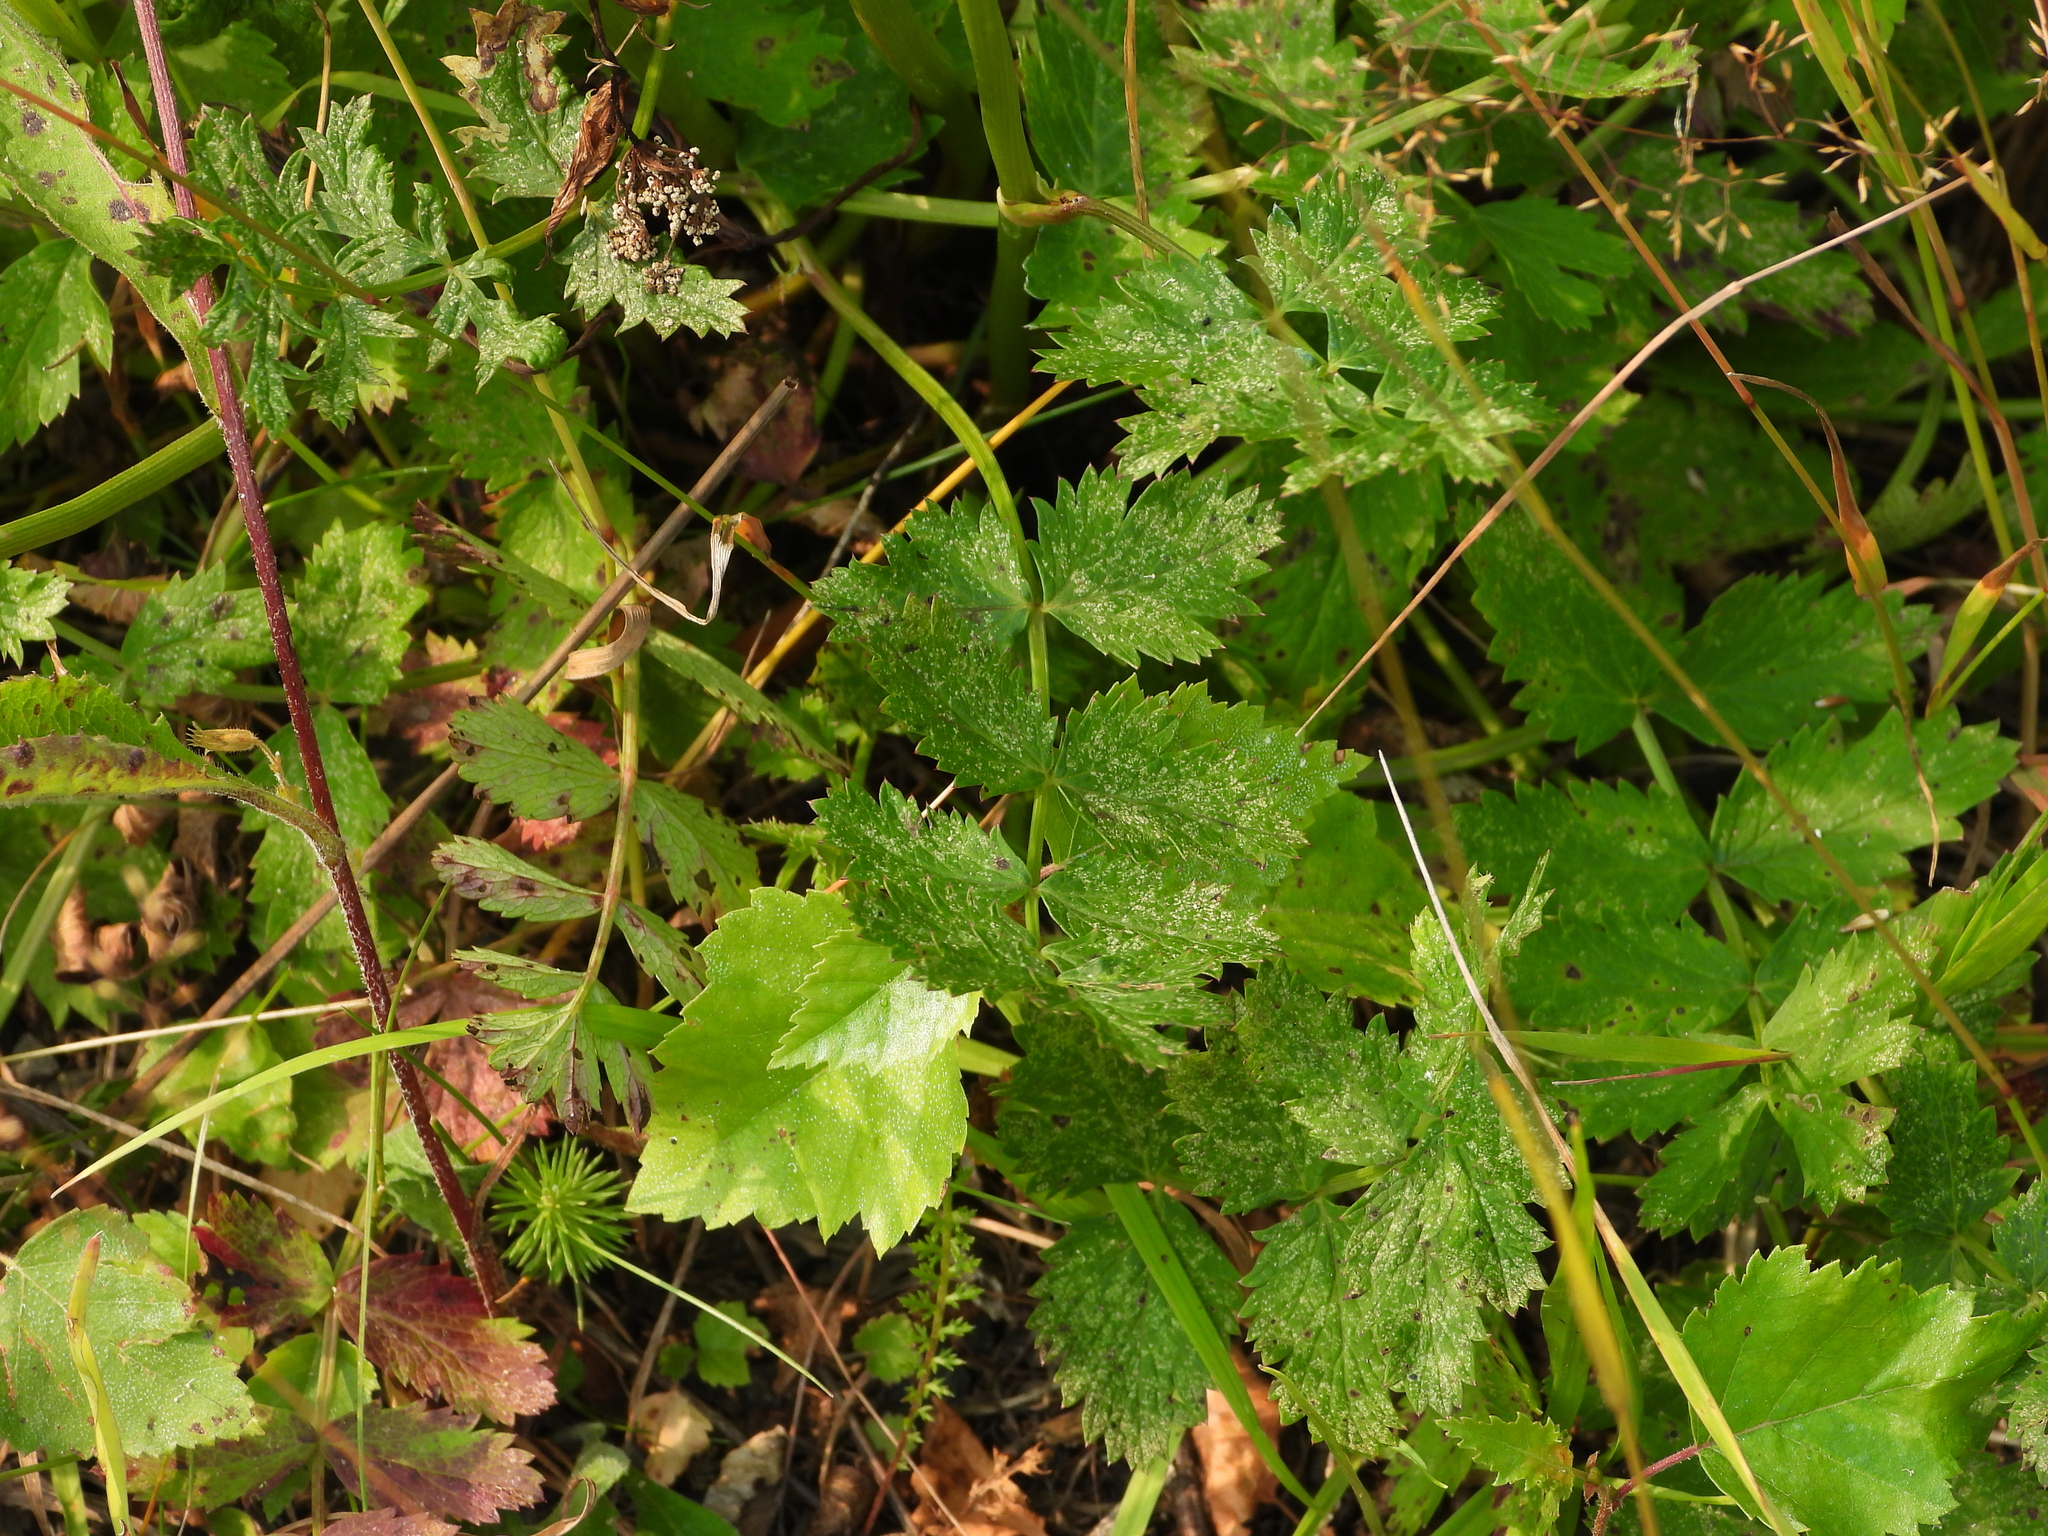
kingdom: Plantae
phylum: Tracheophyta
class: Magnoliopsida
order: Apiales
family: Apiaceae
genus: Pimpinella
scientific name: Pimpinella saxifraga
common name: Burnet-saxifrage
